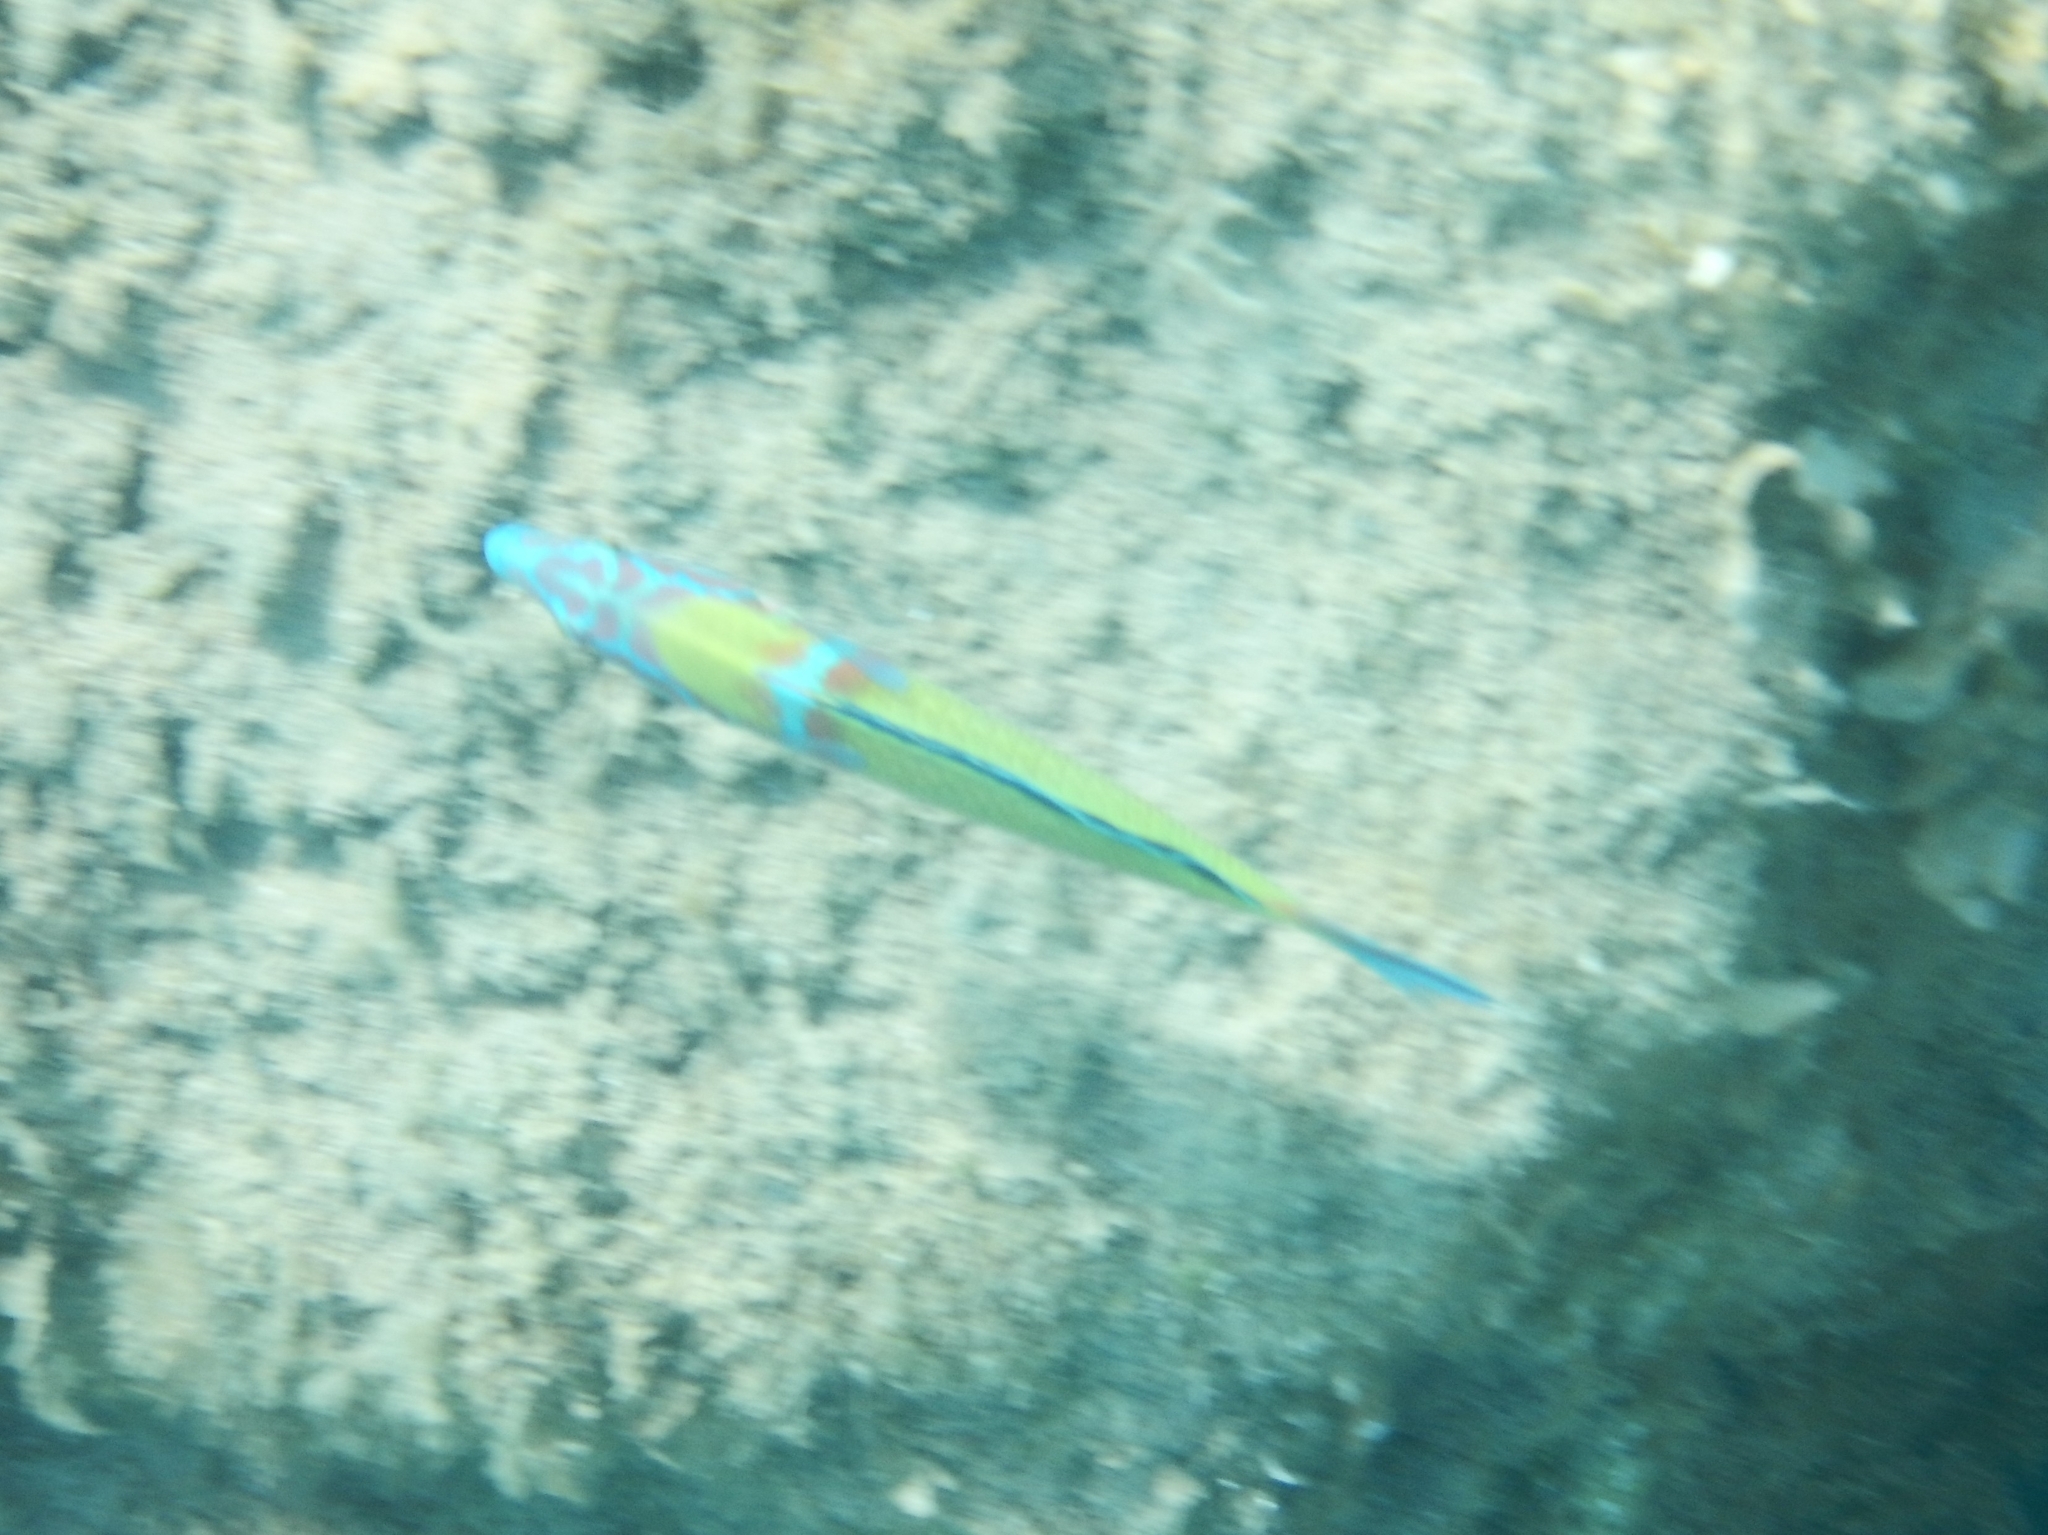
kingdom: Animalia
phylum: Chordata
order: Perciformes
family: Labridae
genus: Thalassoma
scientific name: Thalassoma pavo
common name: Ornate wrasse
